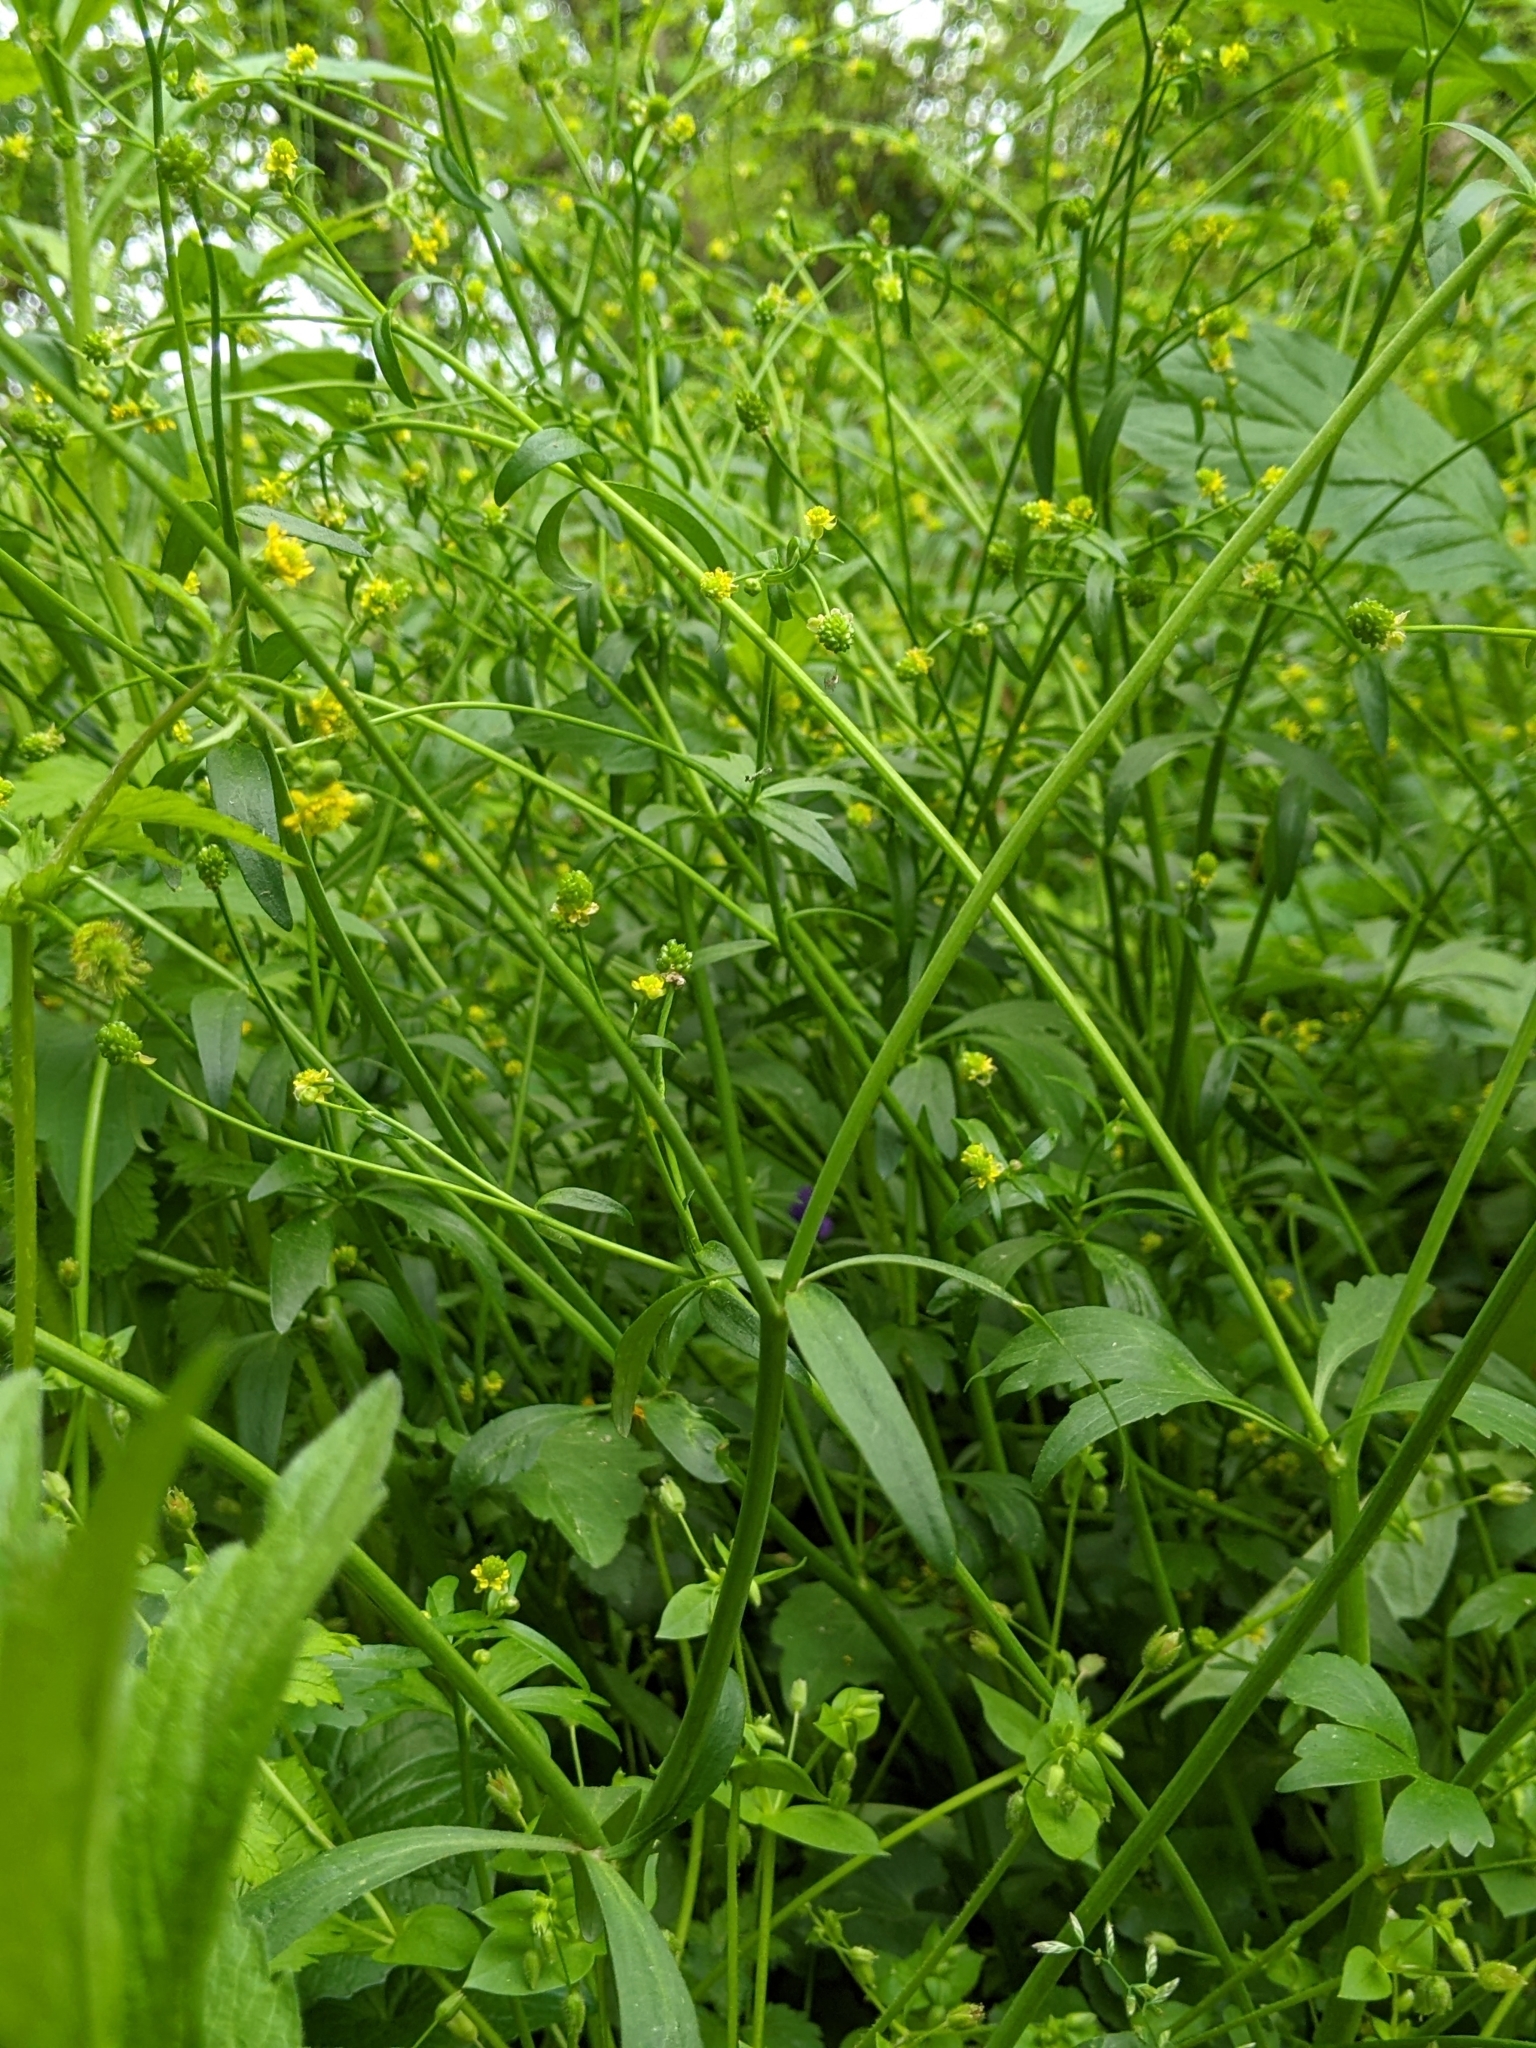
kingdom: Plantae
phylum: Tracheophyta
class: Magnoliopsida
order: Ranunculales
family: Ranunculaceae
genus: Ranunculus
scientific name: Ranunculus abortivus
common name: Early wood buttercup
